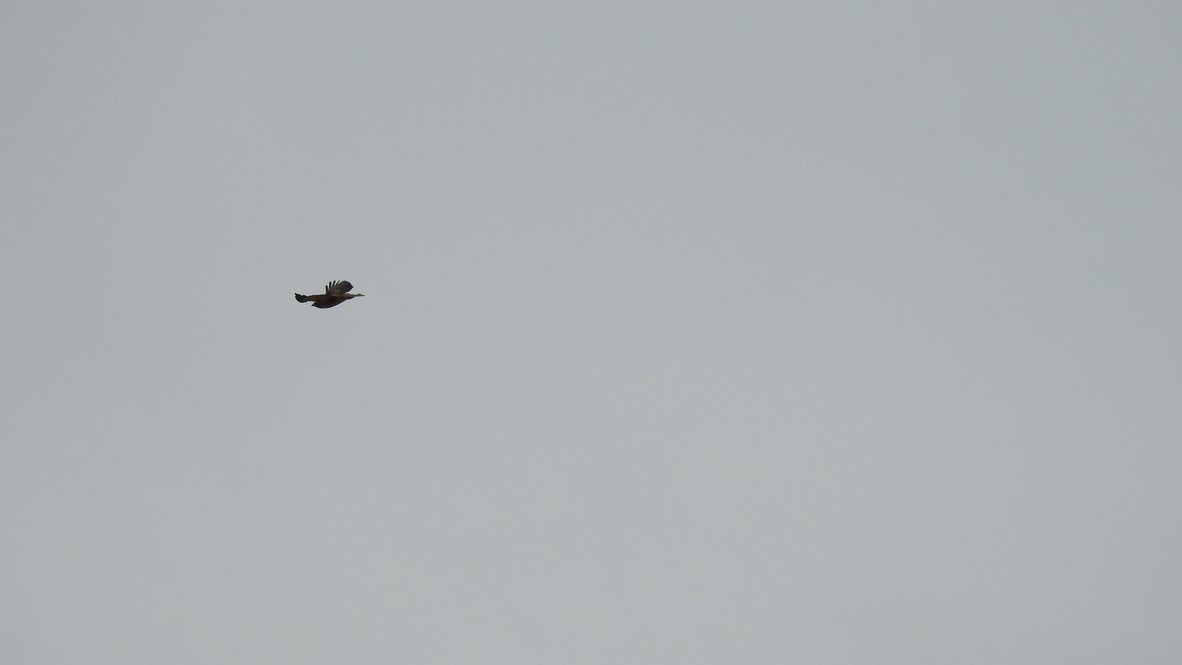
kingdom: Animalia
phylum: Chordata
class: Aves
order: Accipitriformes
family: Accipitridae
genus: Buteo
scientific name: Buteo jamaicensis
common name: Red-tailed hawk
